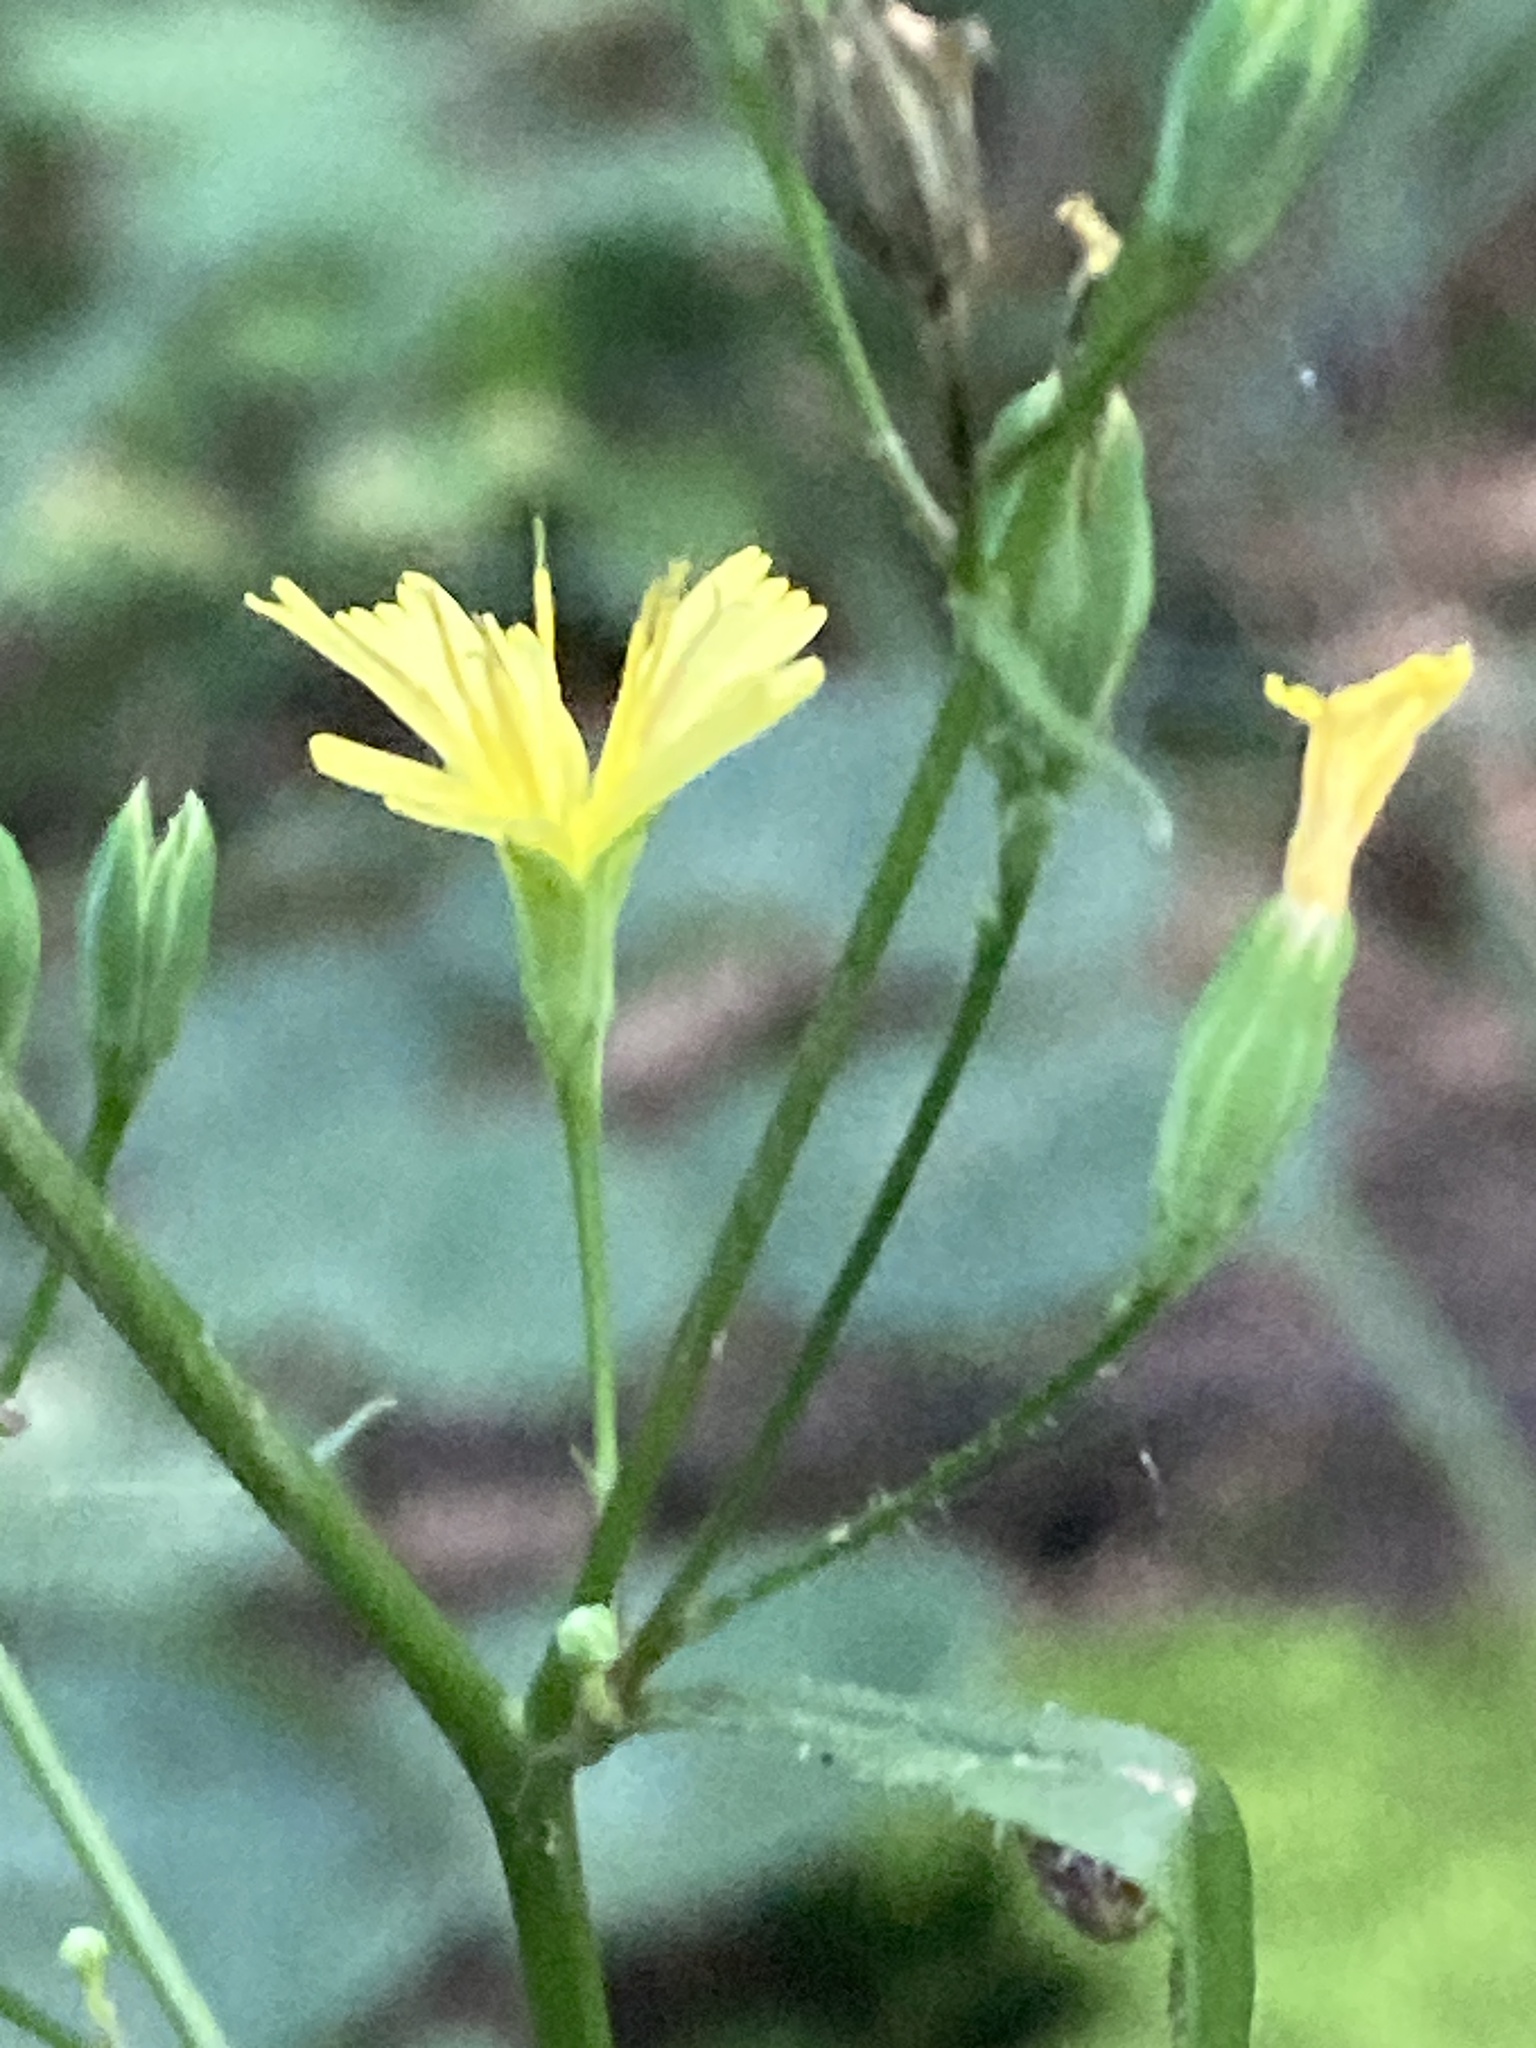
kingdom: Plantae
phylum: Tracheophyta
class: Magnoliopsida
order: Asterales
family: Asteraceae
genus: Lapsana
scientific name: Lapsana communis
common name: Nipplewort
